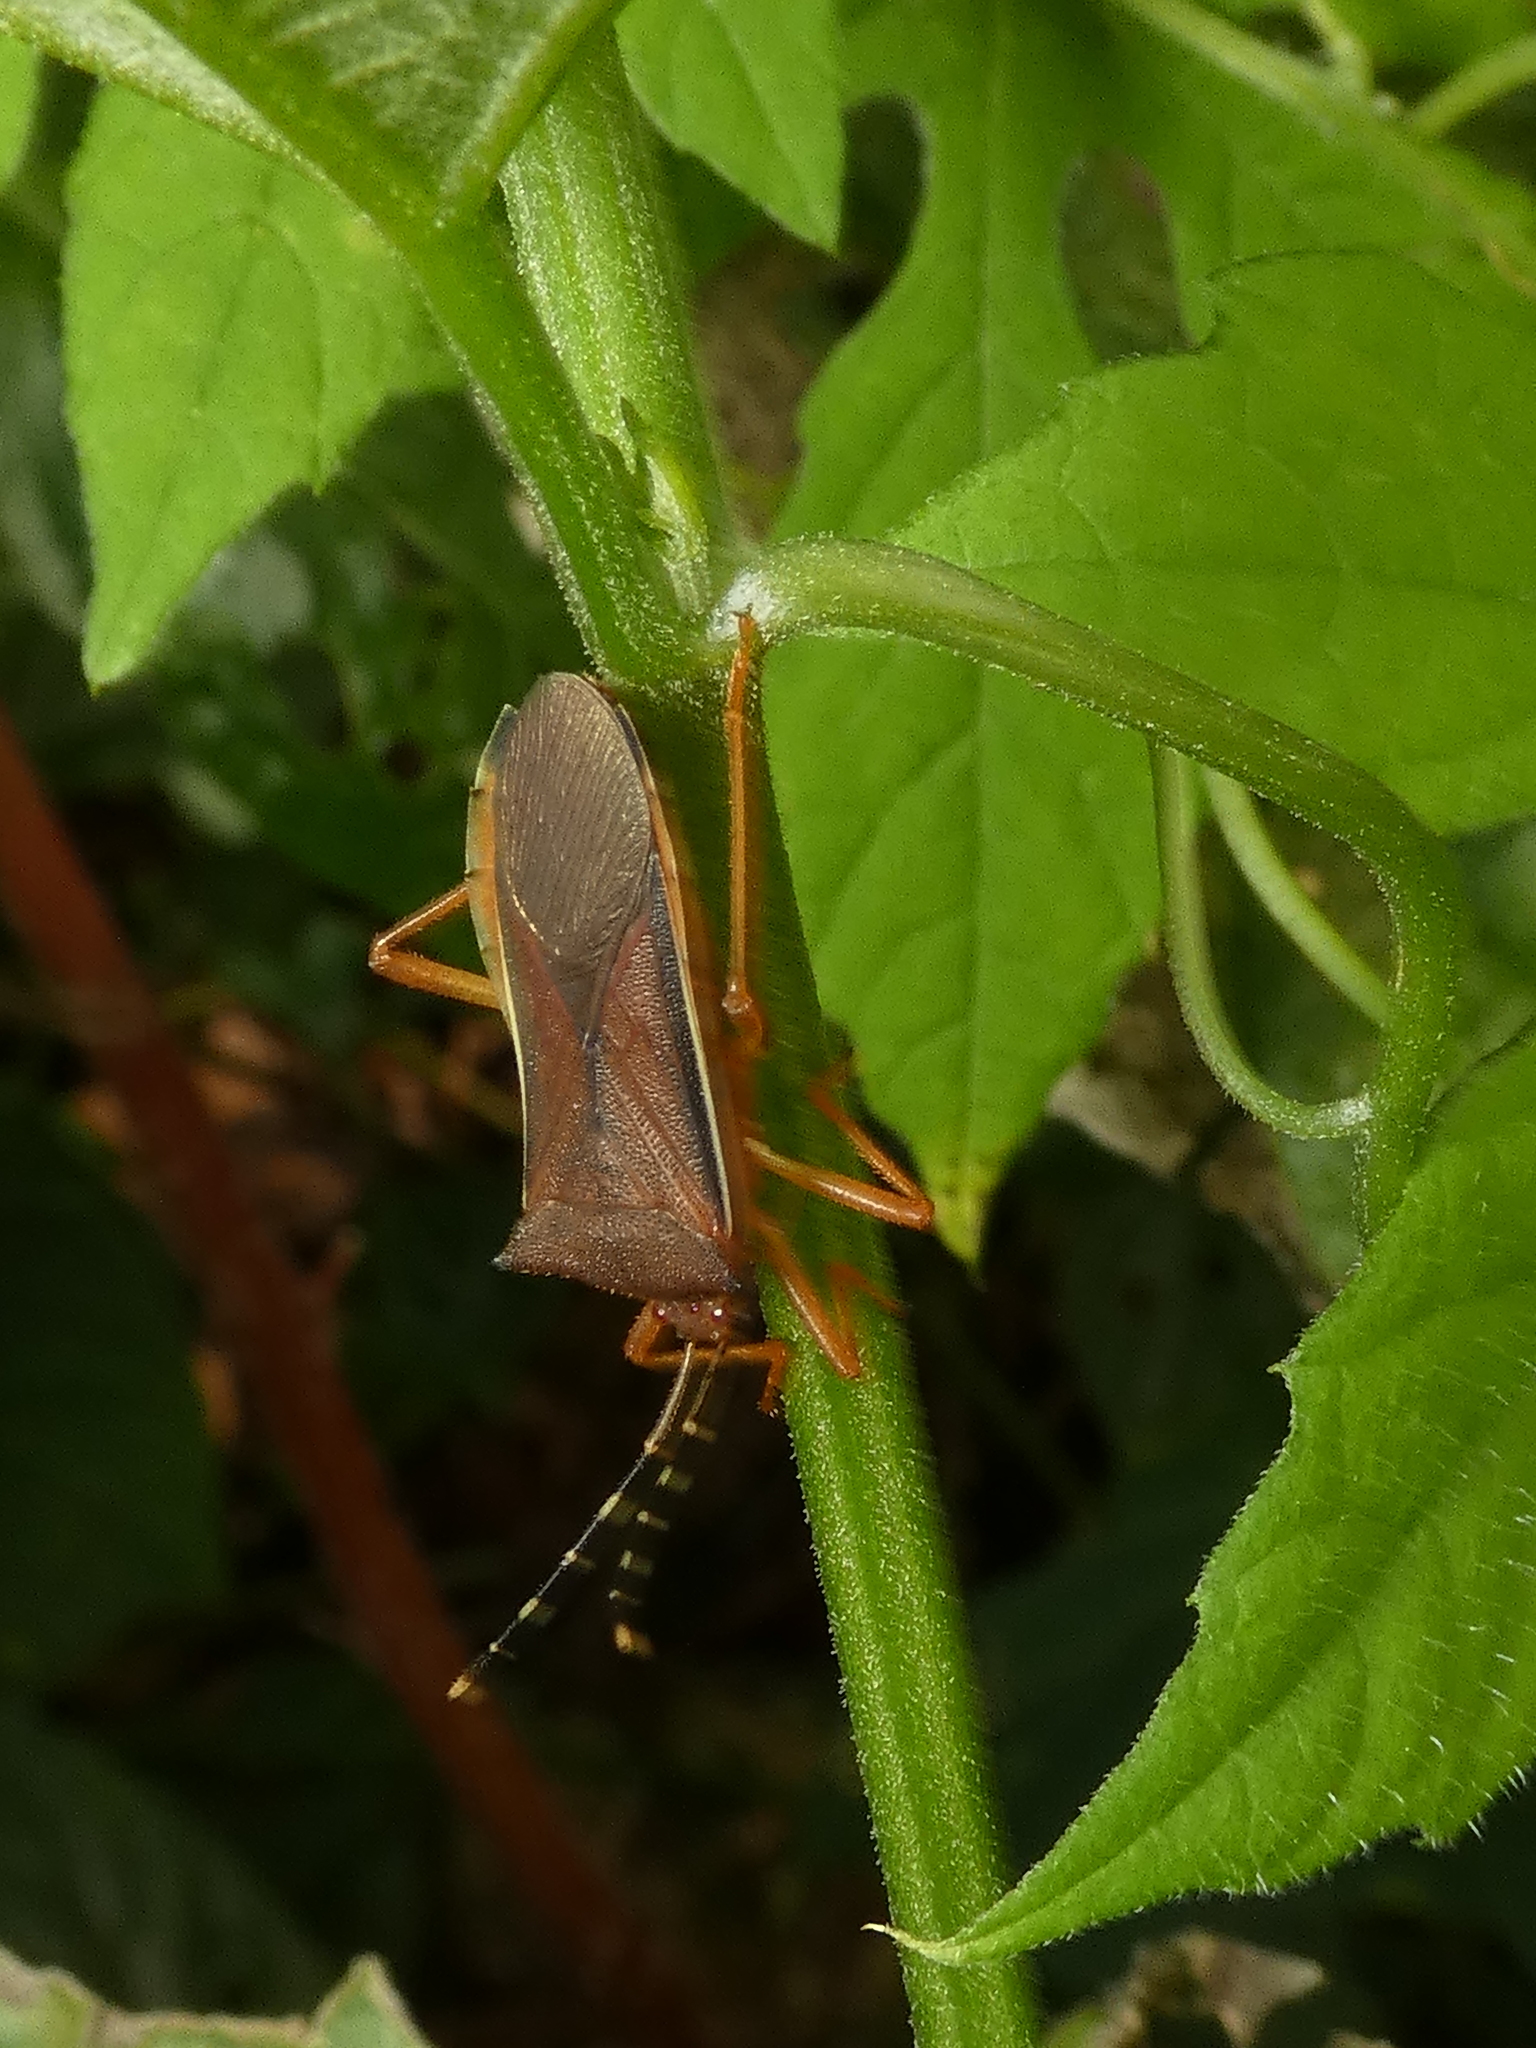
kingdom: Animalia
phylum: Arthropoda
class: Insecta
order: Hemiptera
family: Coreidae
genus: Anasa
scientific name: Anasa varicornis
